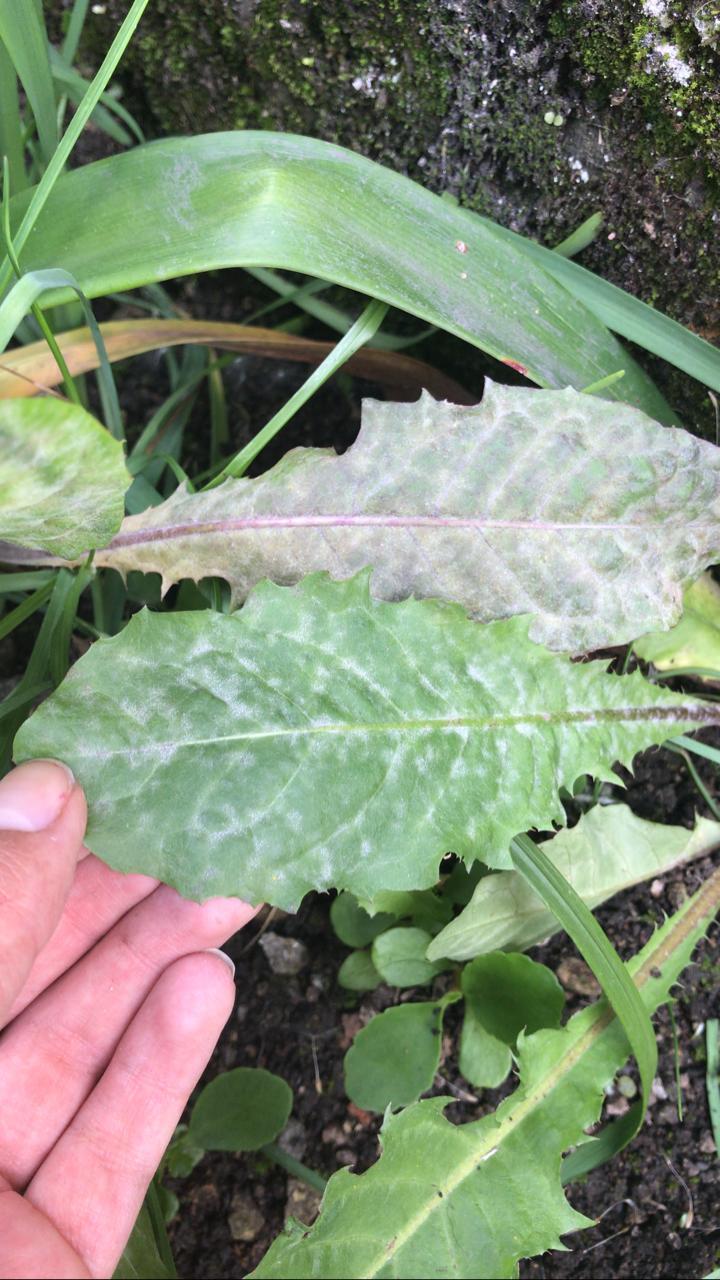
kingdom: Fungi
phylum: Ascomycota
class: Leotiomycetes
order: Helotiales
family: Erysiphaceae
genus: Podosphaera
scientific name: Podosphaera erigerontis-canadensis
